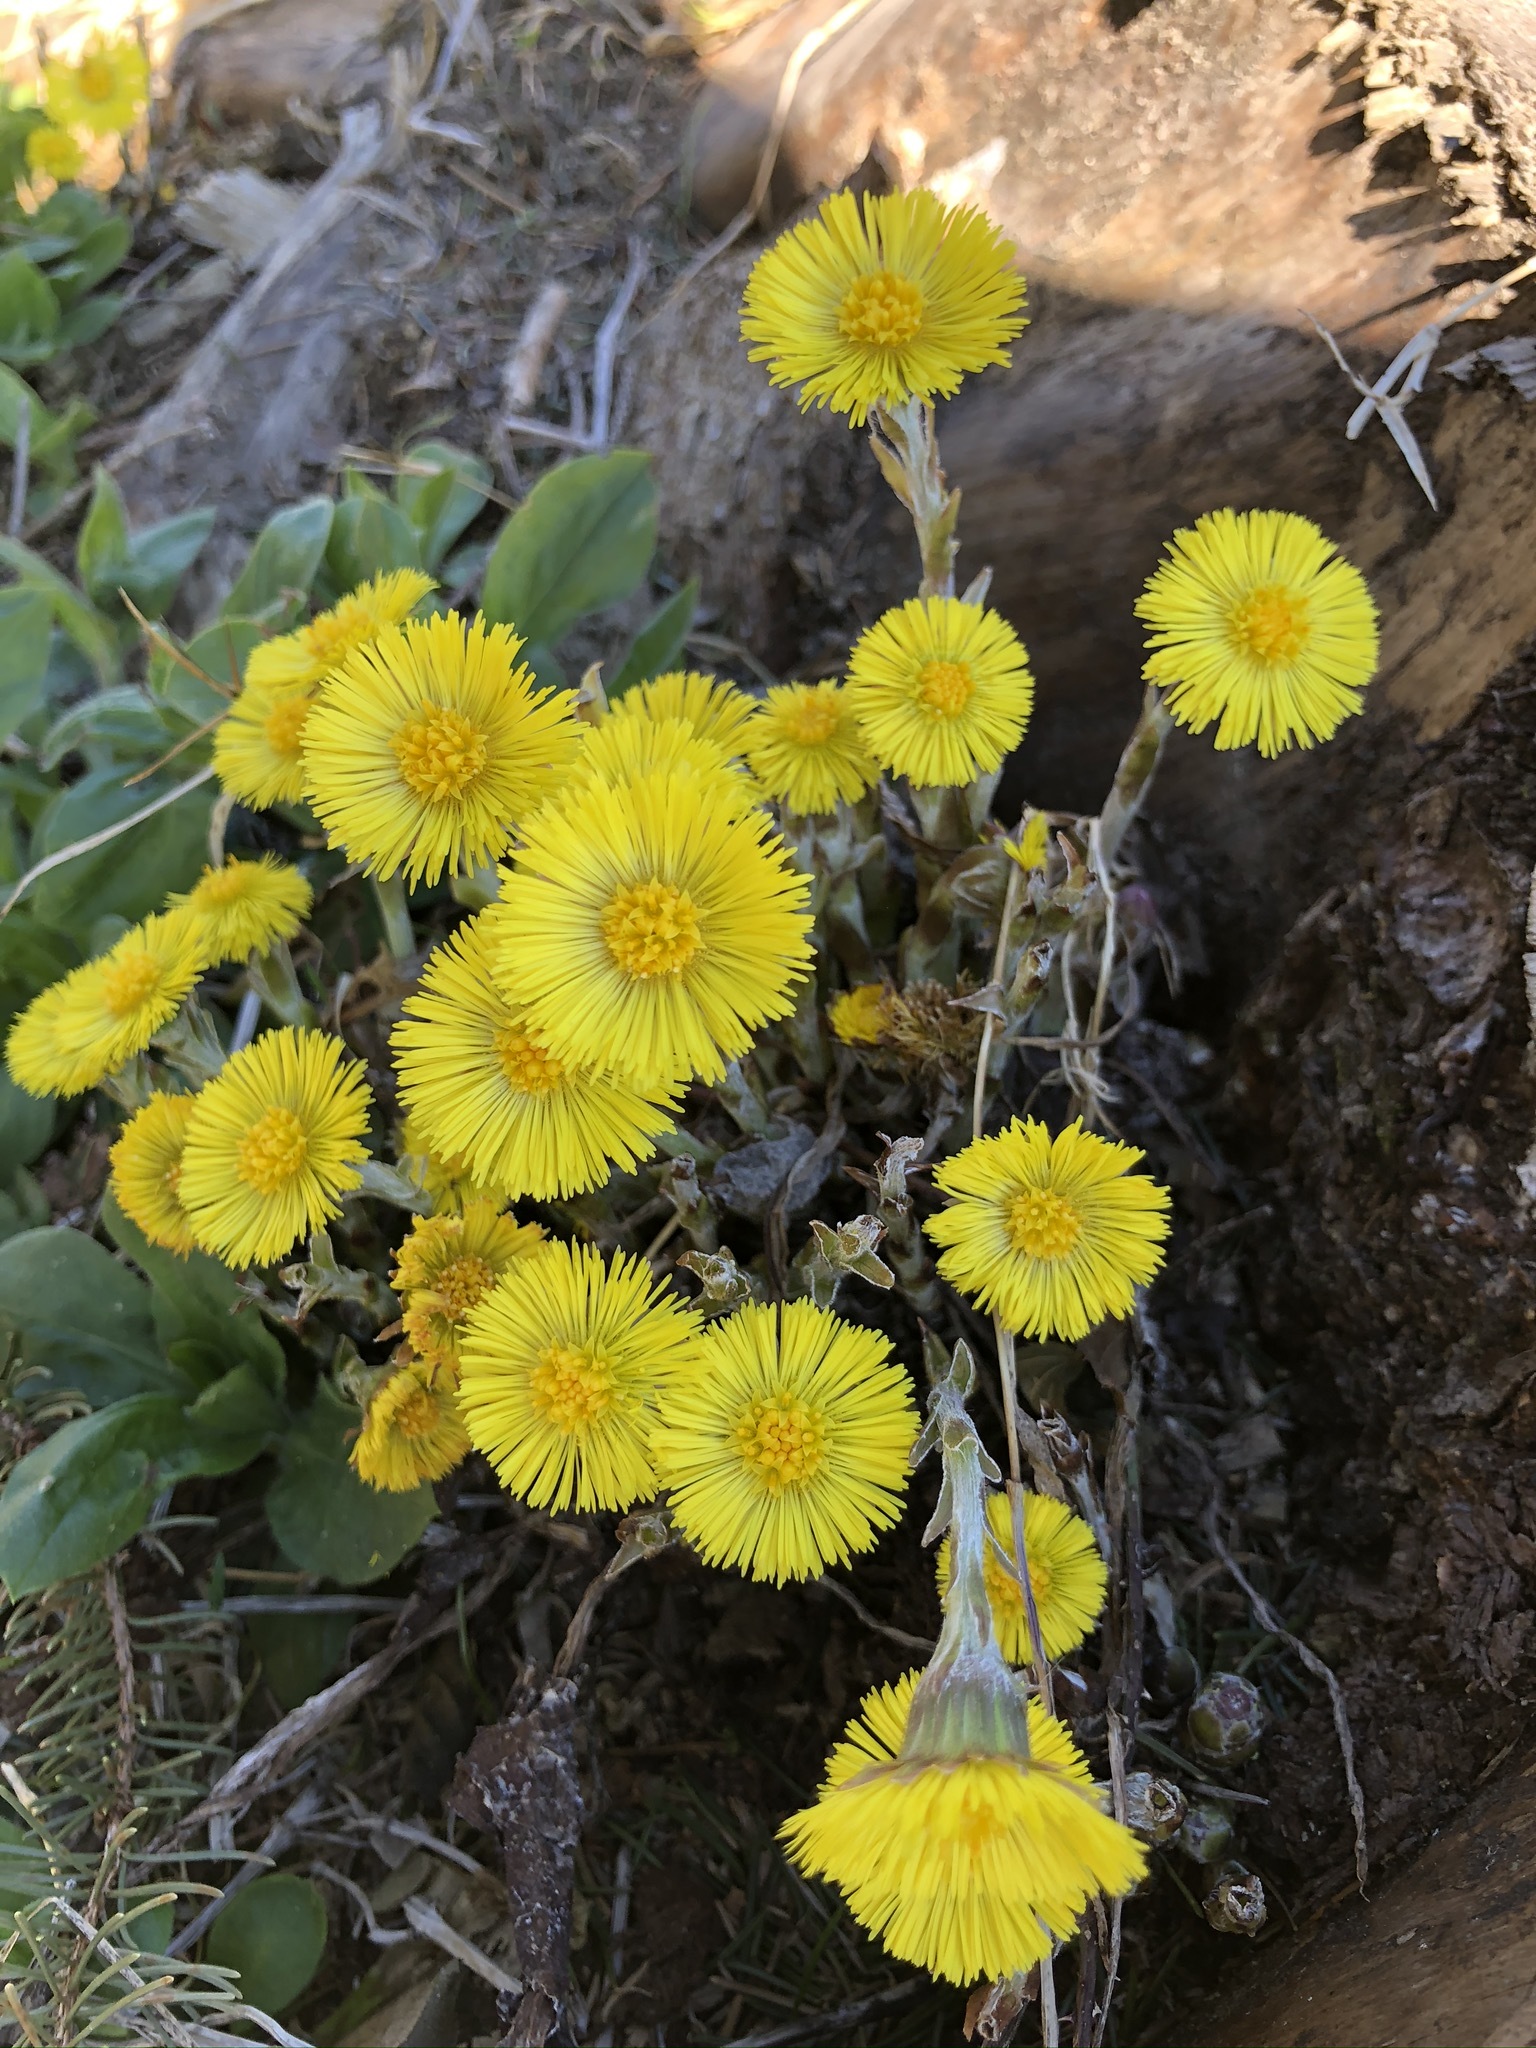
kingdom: Plantae
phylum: Tracheophyta
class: Magnoliopsida
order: Asterales
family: Asteraceae
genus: Tussilago
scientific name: Tussilago farfara
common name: Coltsfoot
